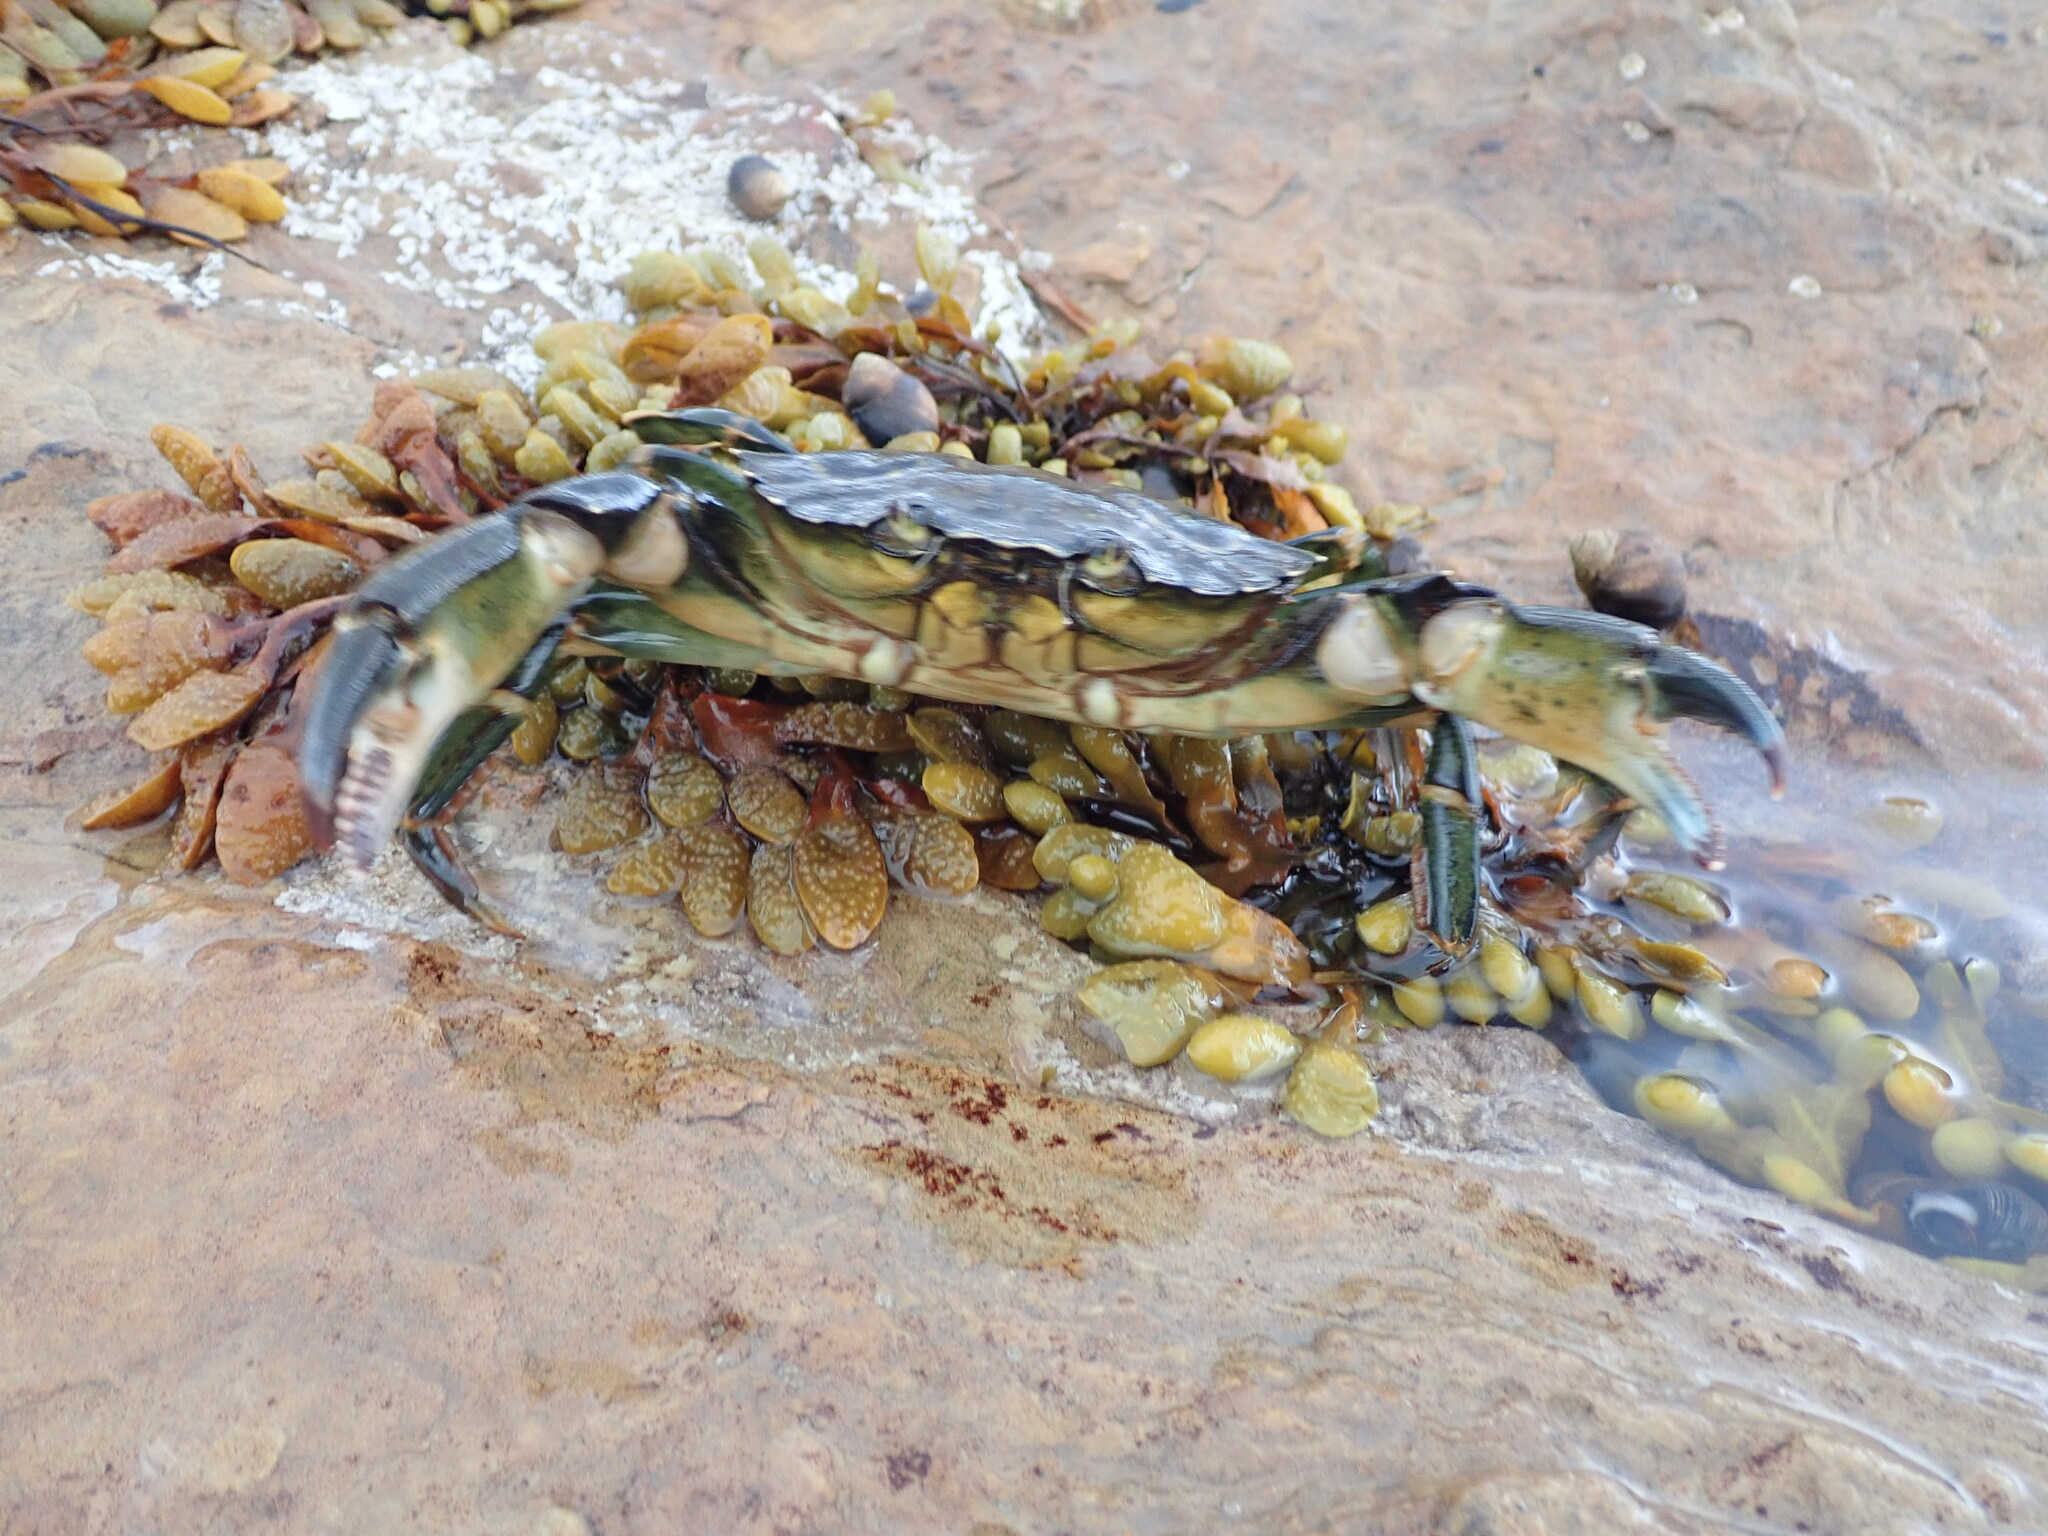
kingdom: Animalia
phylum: Arthropoda
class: Malacostraca
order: Decapoda
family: Carcinidae
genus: Carcinus
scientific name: Carcinus maenas
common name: European green crab
